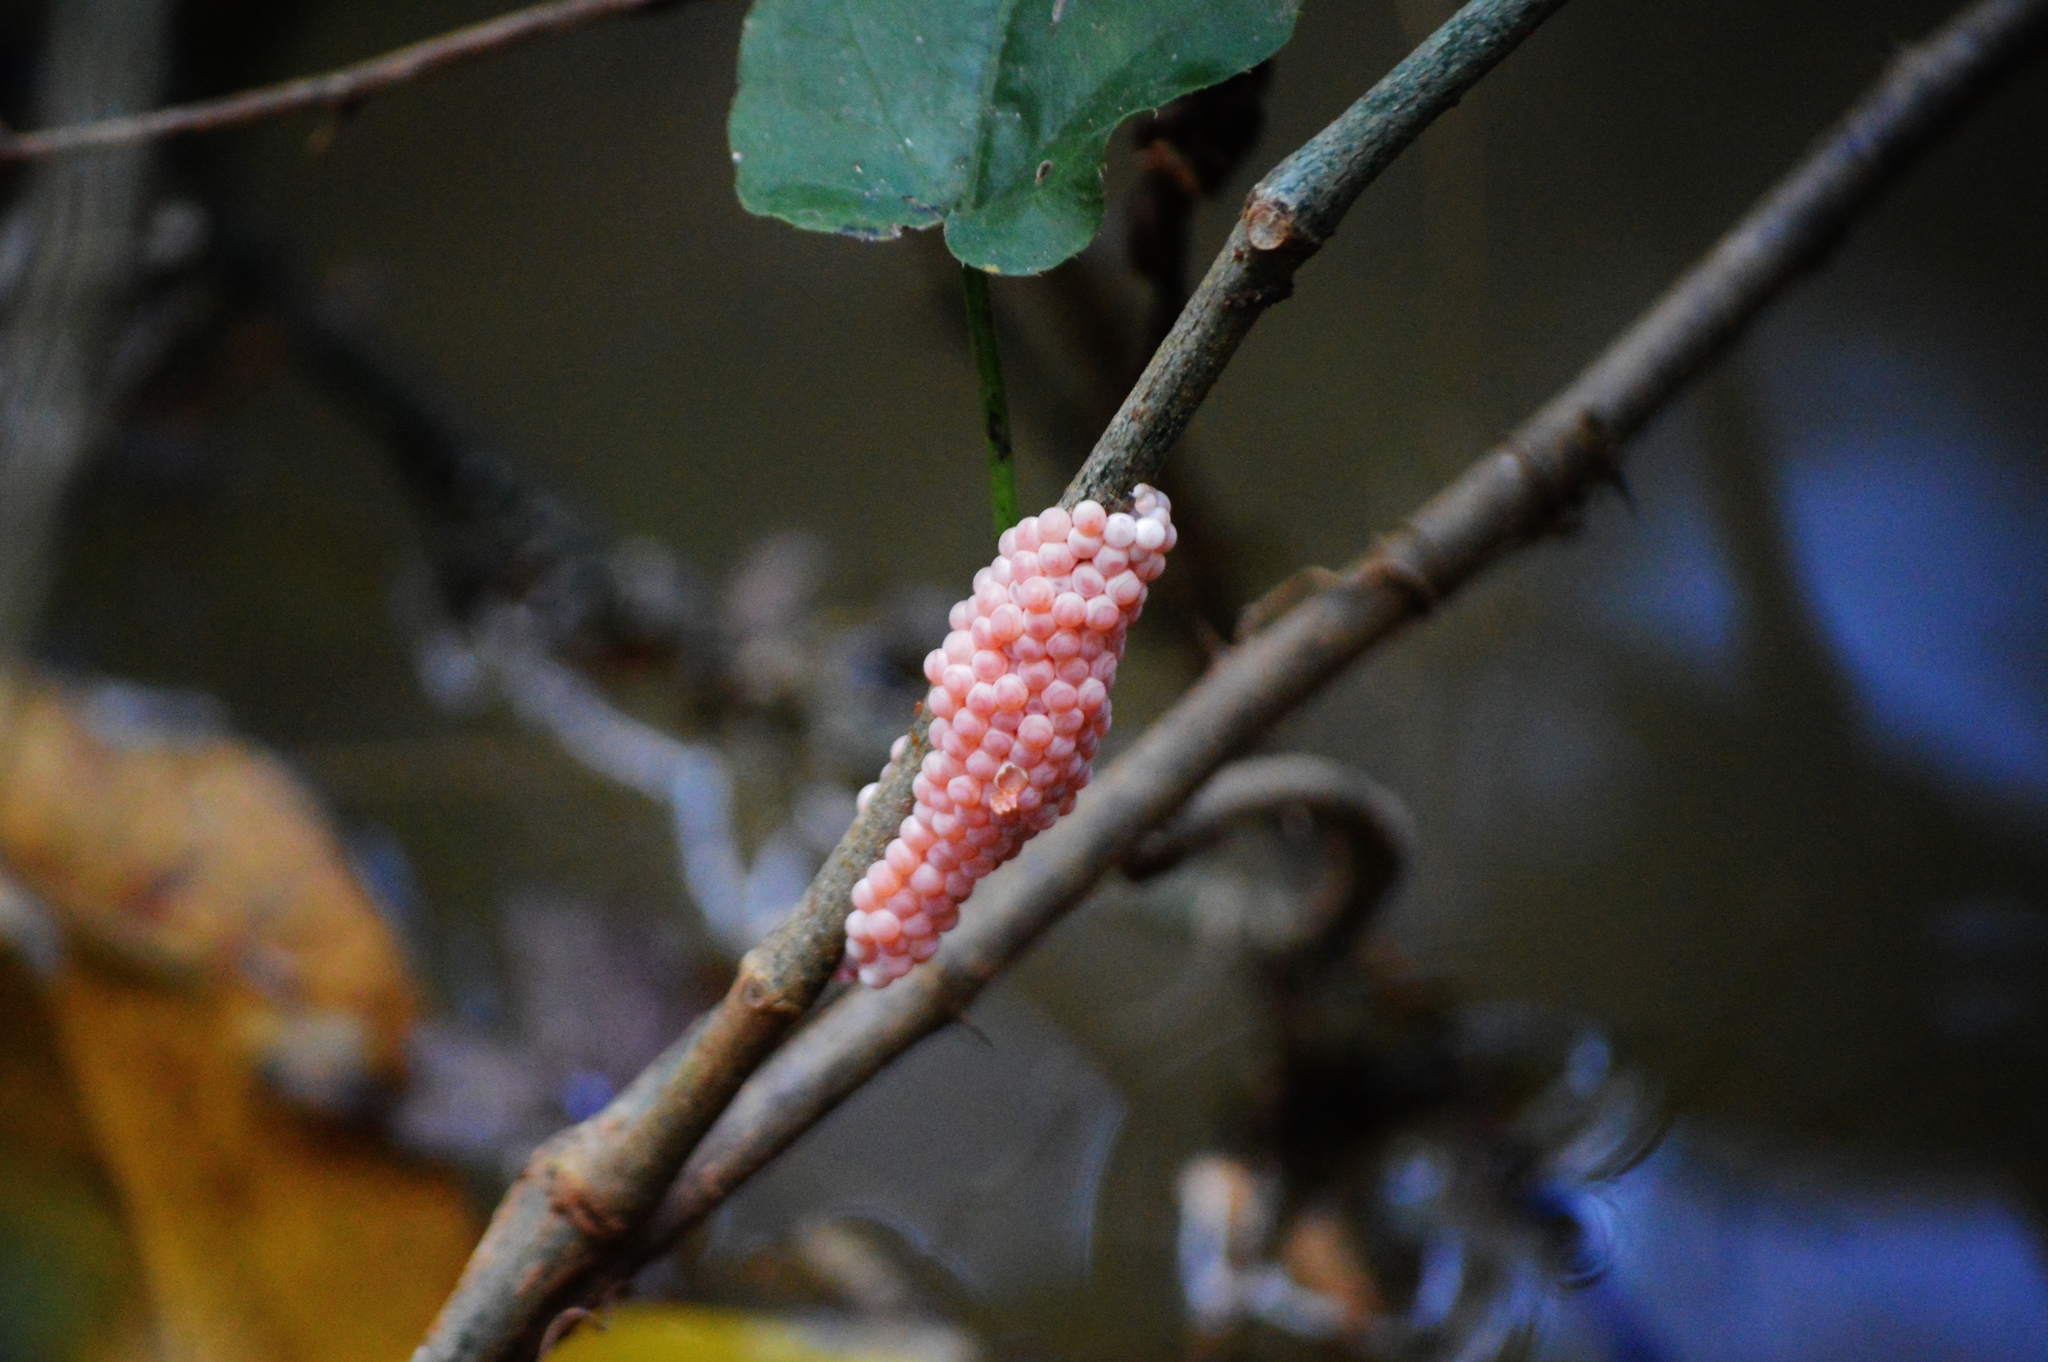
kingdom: Animalia
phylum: Mollusca
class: Gastropoda
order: Architaenioglossa
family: Ampullariidae
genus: Pomacea
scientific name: Pomacea
